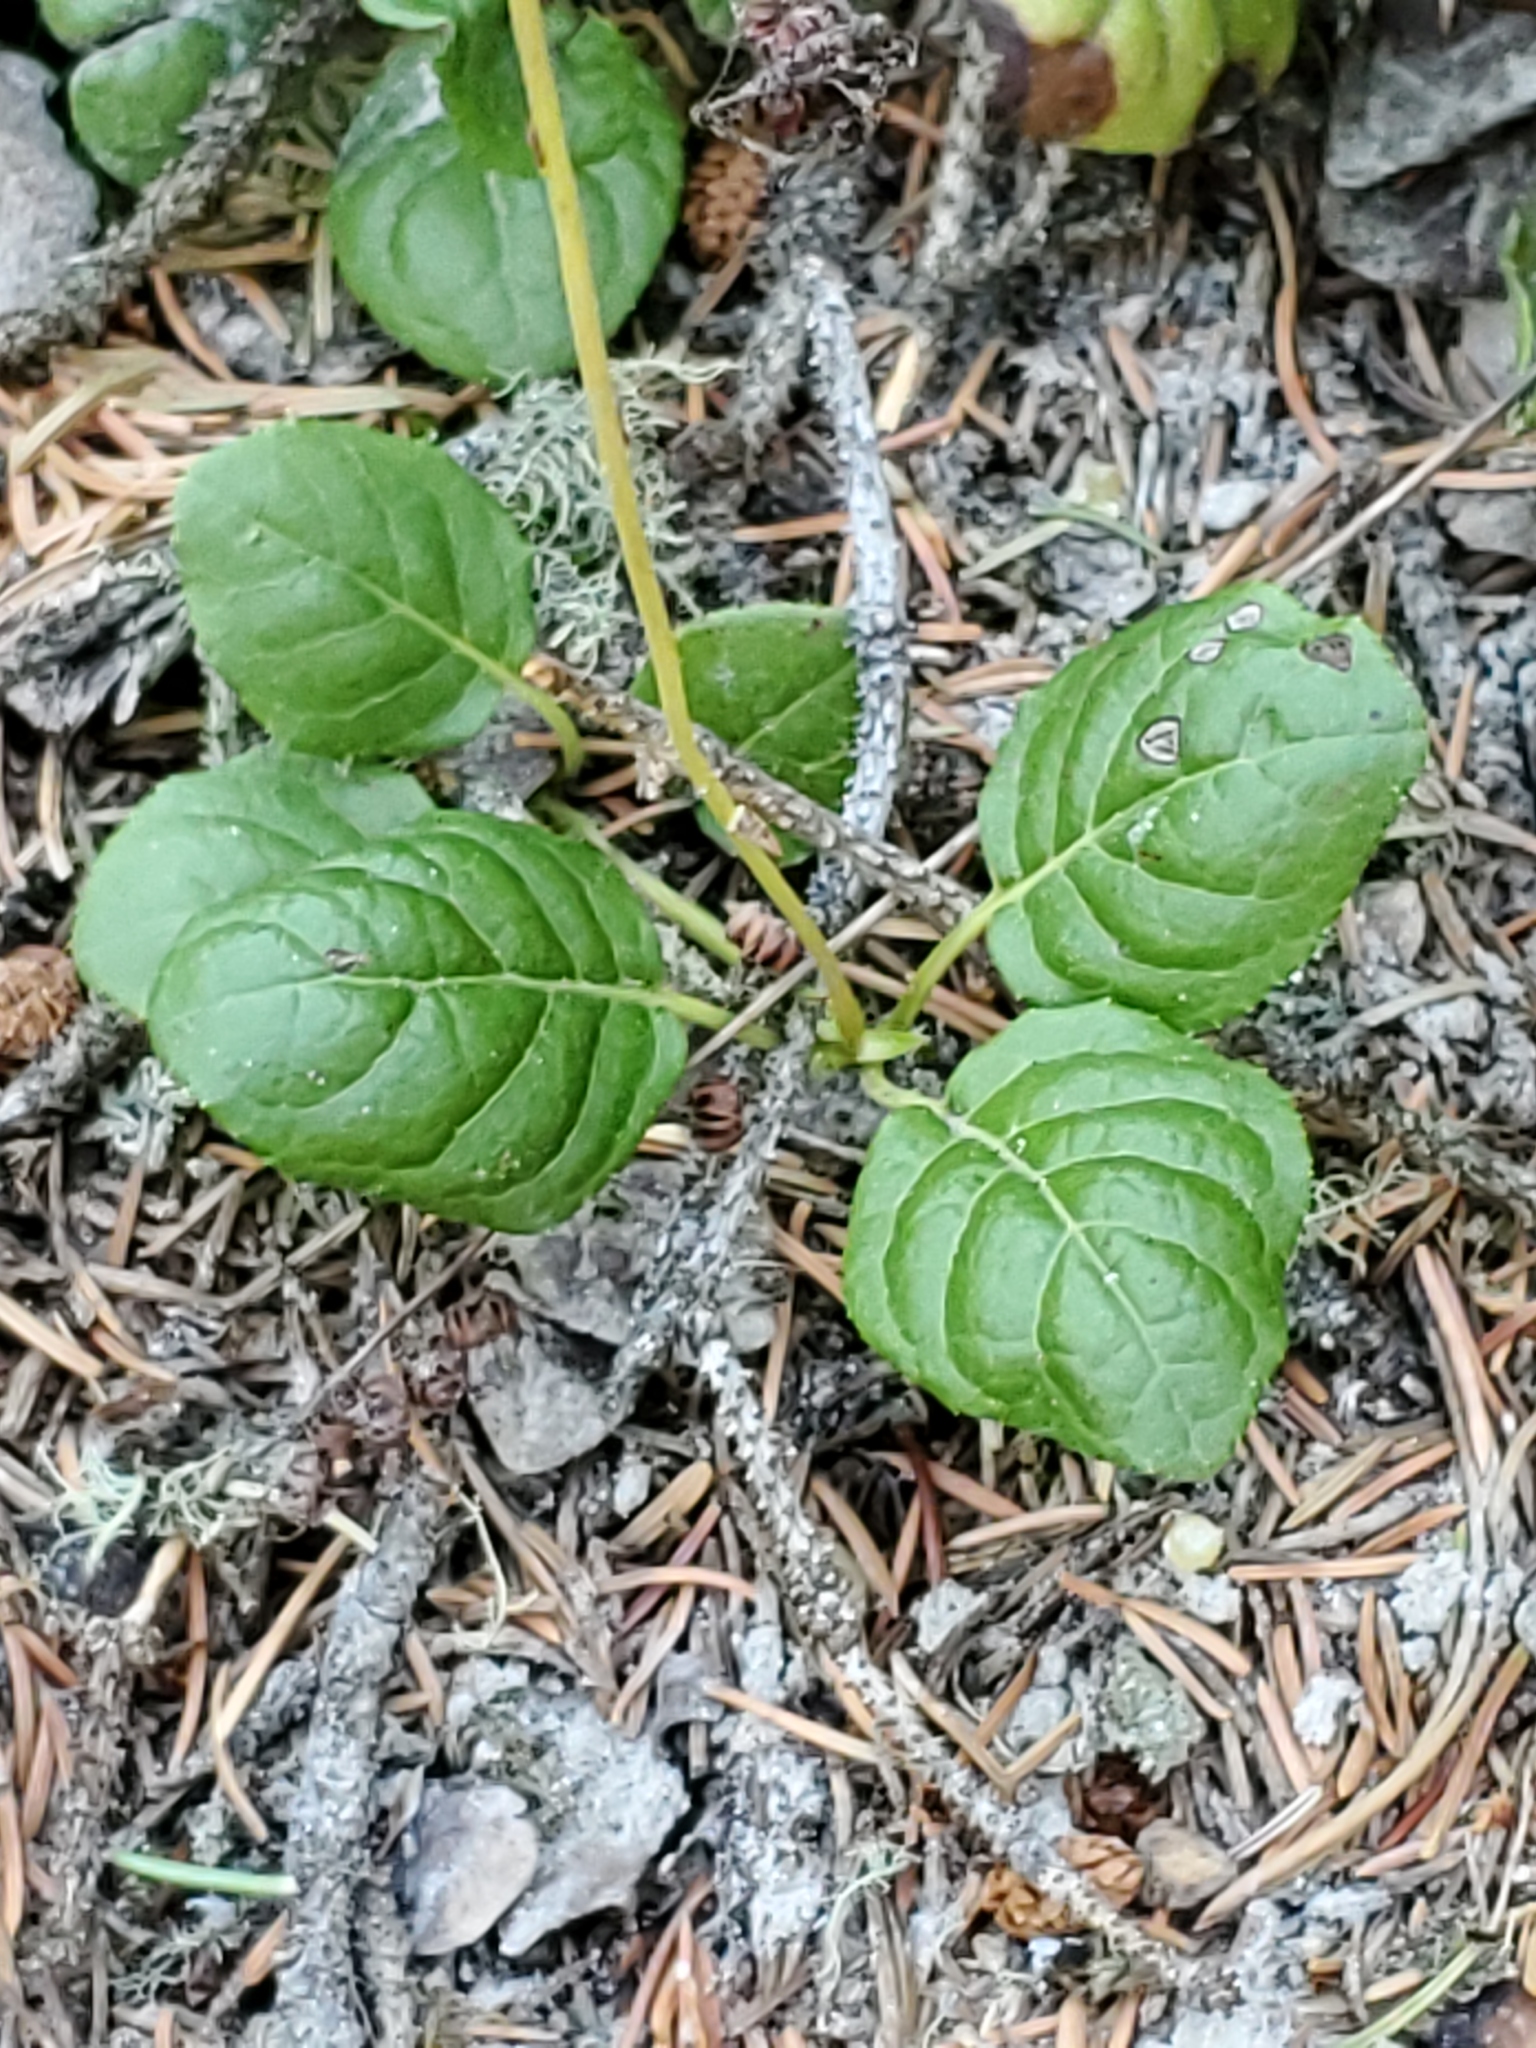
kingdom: Plantae
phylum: Tracheophyta
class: Magnoliopsida
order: Ericales
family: Ericaceae
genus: Orthilia
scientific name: Orthilia secunda
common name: One-sided orthilia
